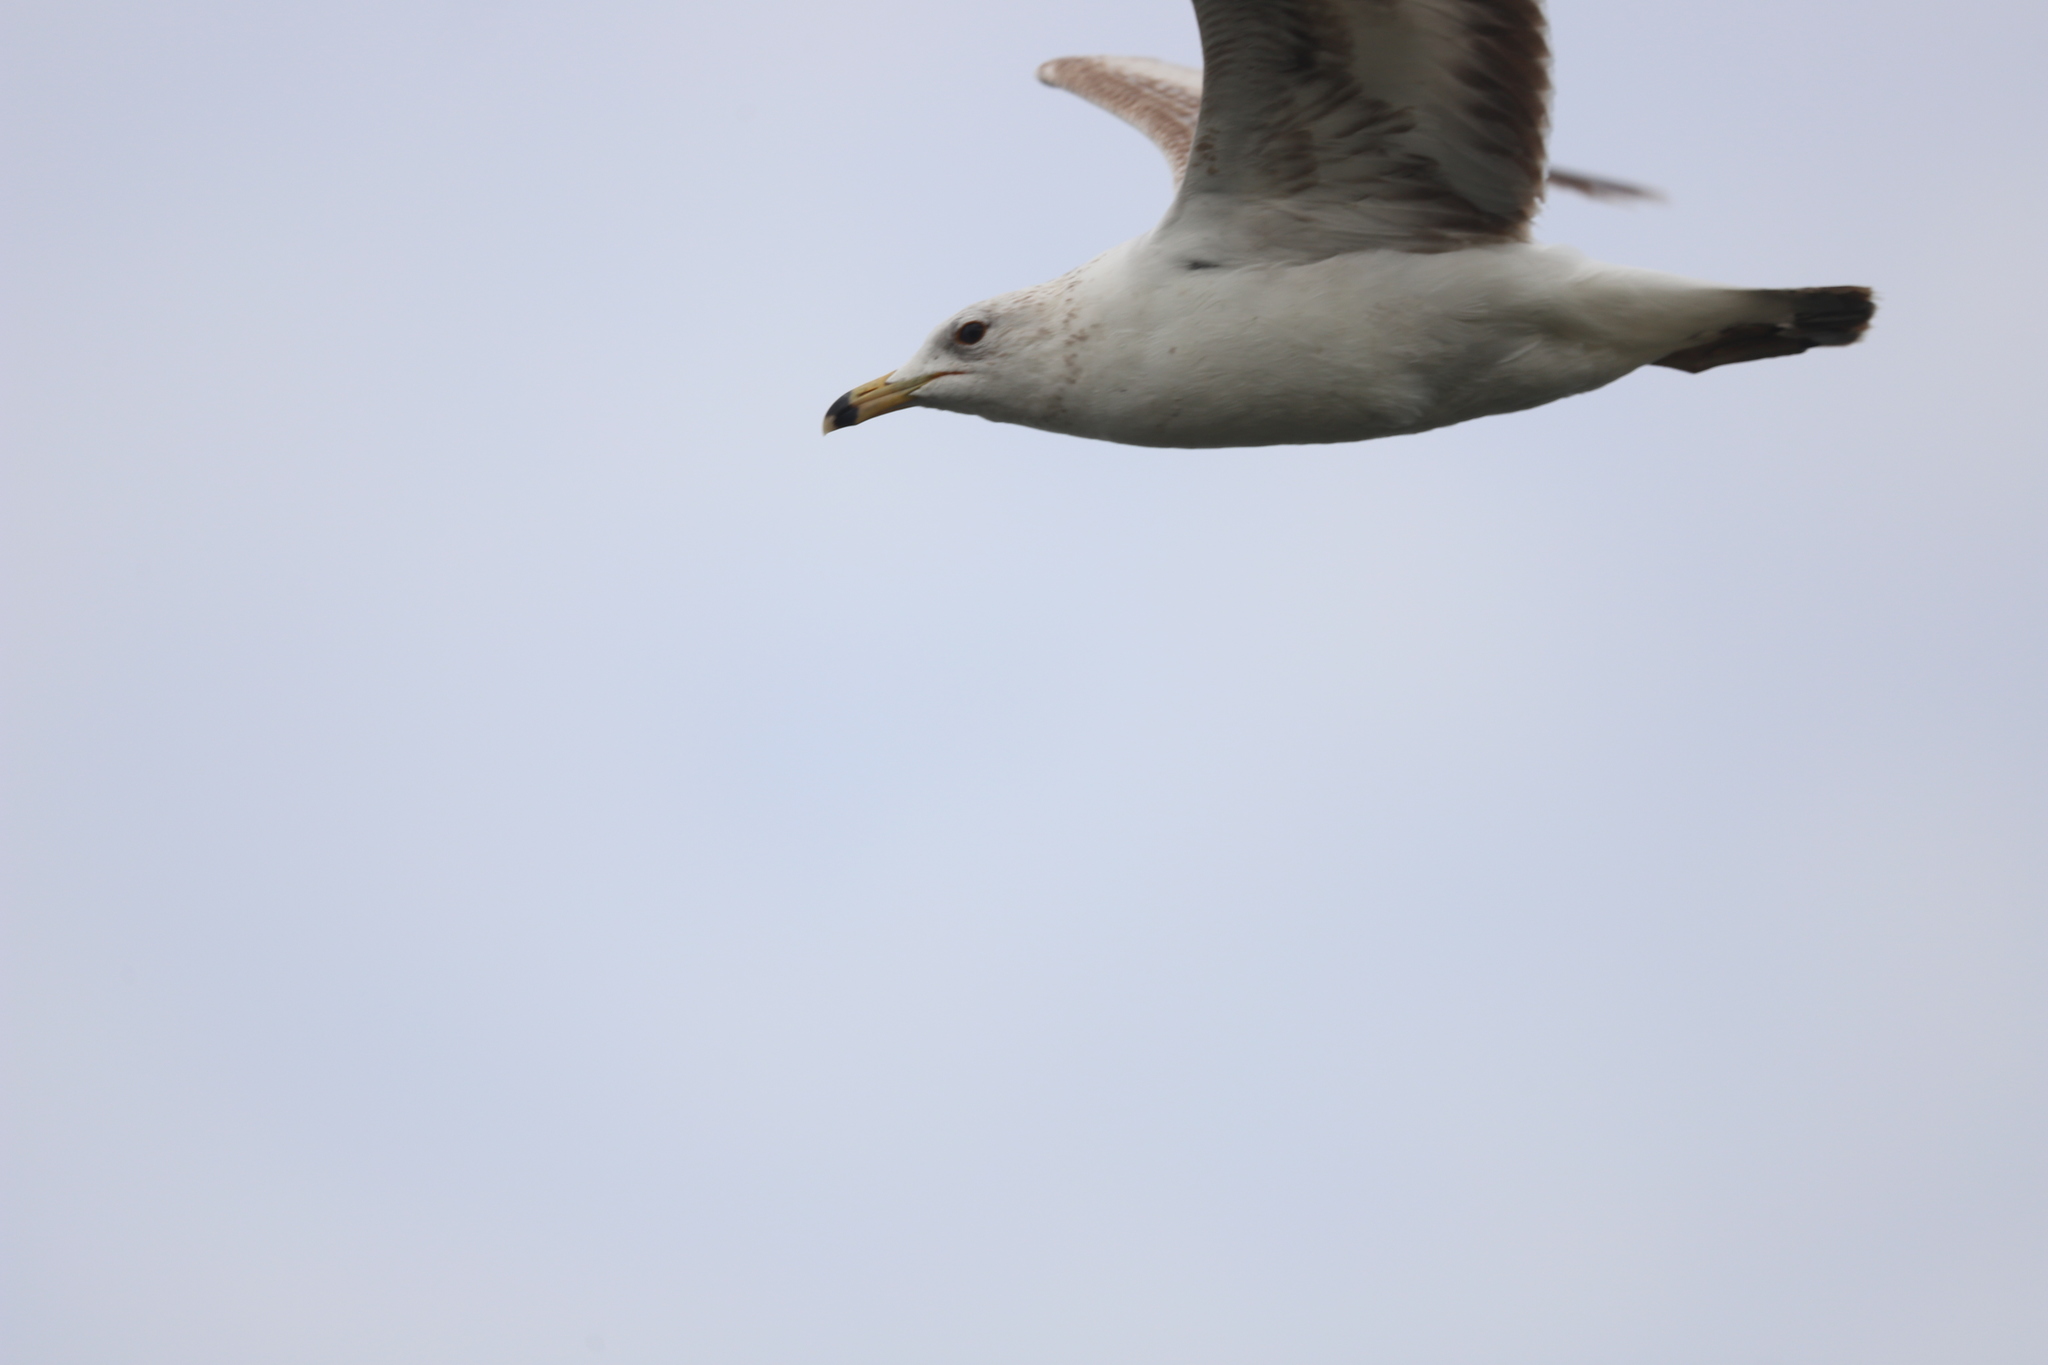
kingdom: Animalia
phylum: Chordata
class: Aves
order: Charadriiformes
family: Laridae
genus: Larus
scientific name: Larus delawarensis
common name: Ring-billed gull
